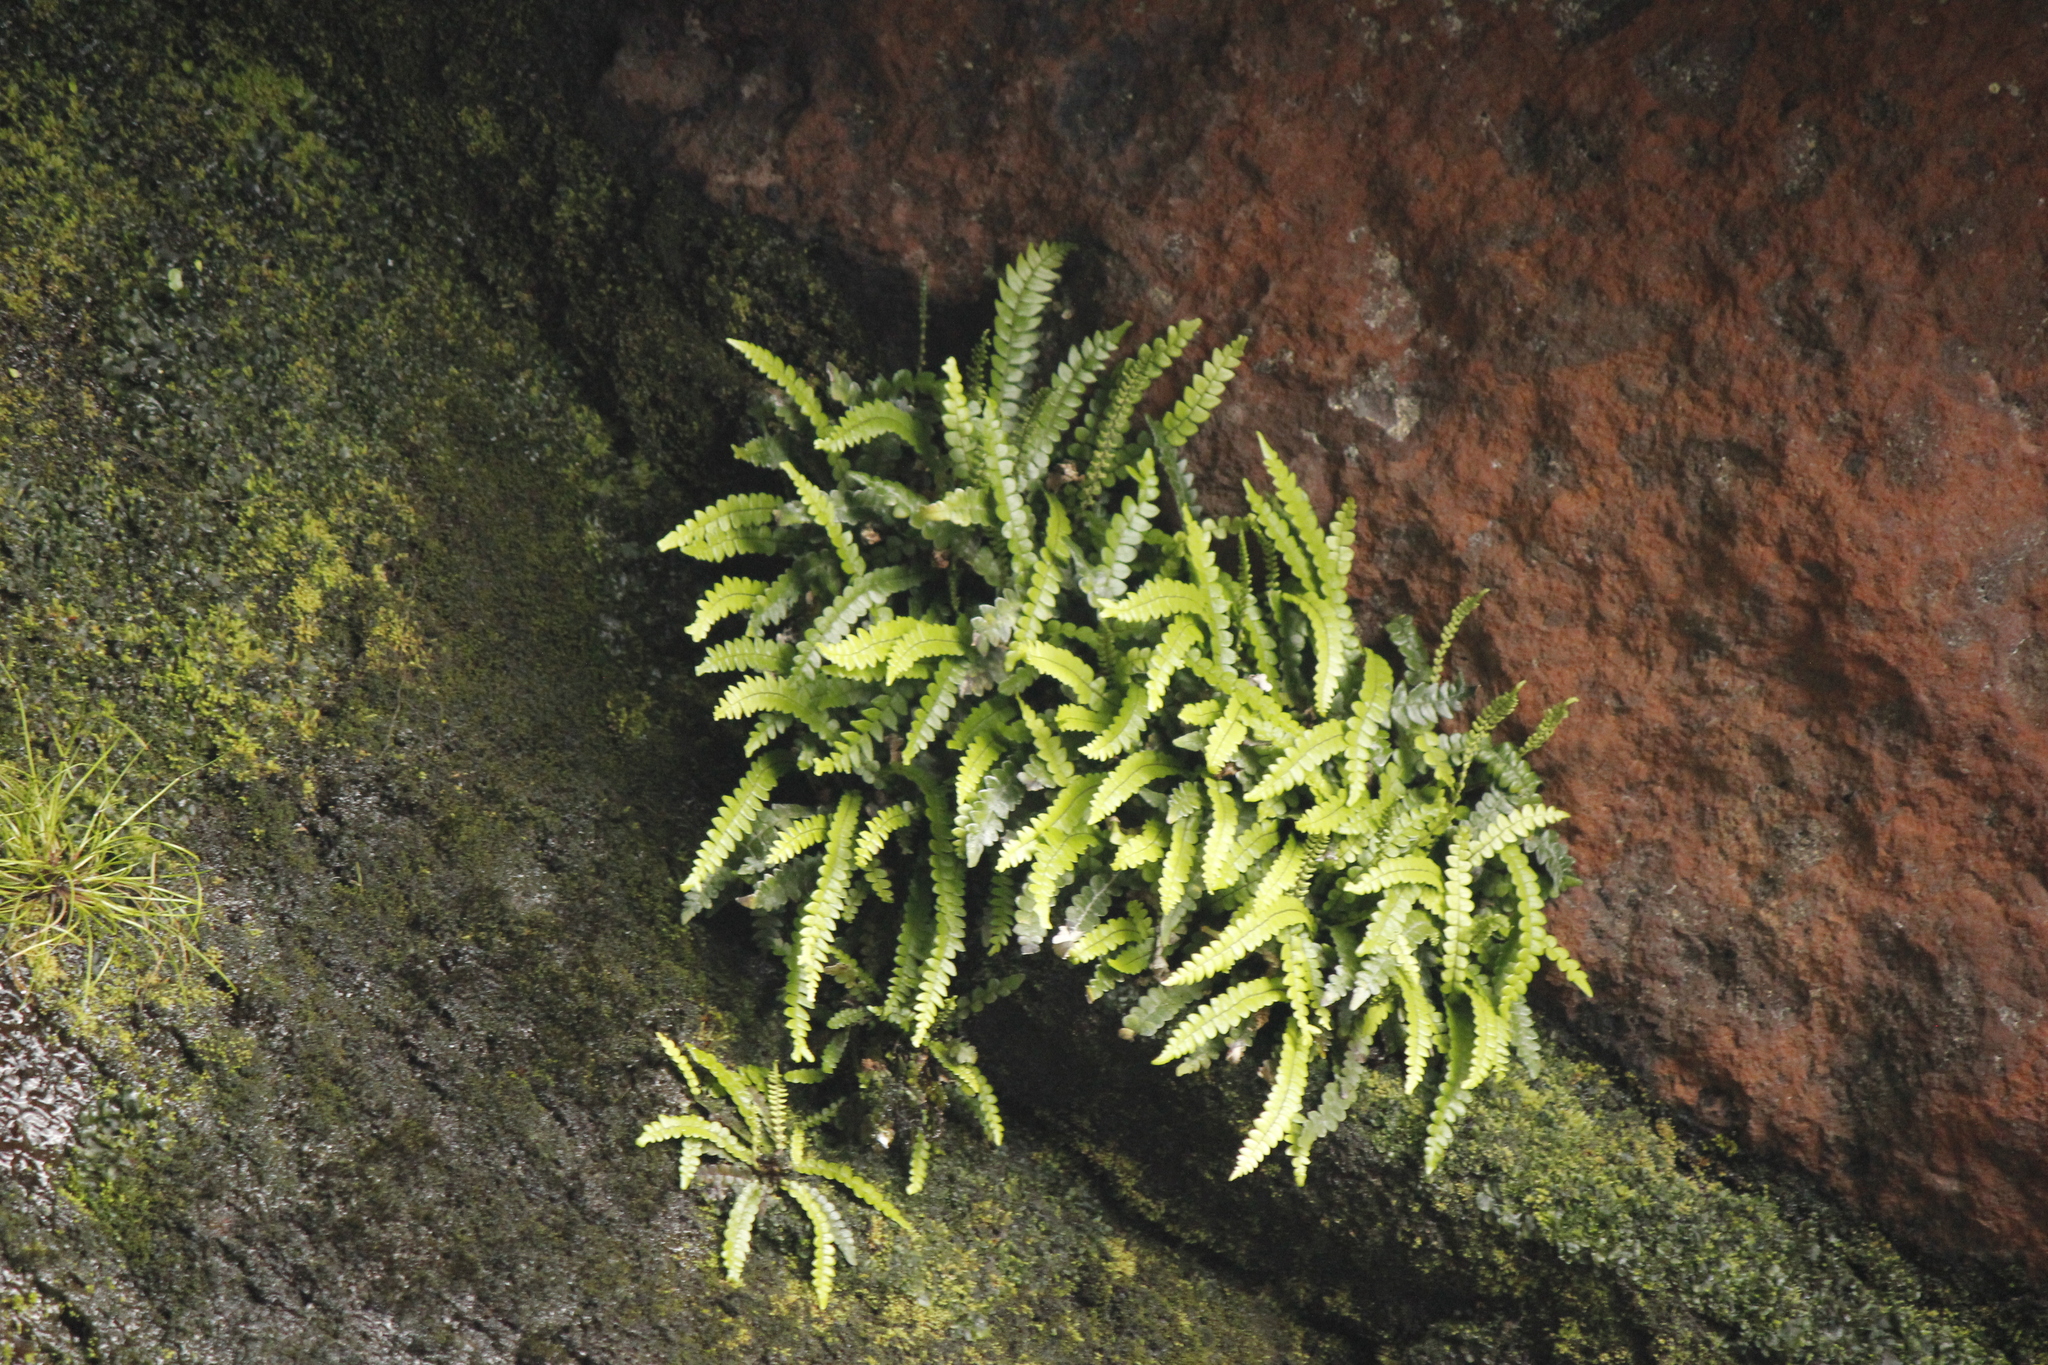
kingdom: Plantae
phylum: Tracheophyta
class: Polypodiopsida
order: Polypodiales
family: Blechnaceae
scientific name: Blechnaceae
